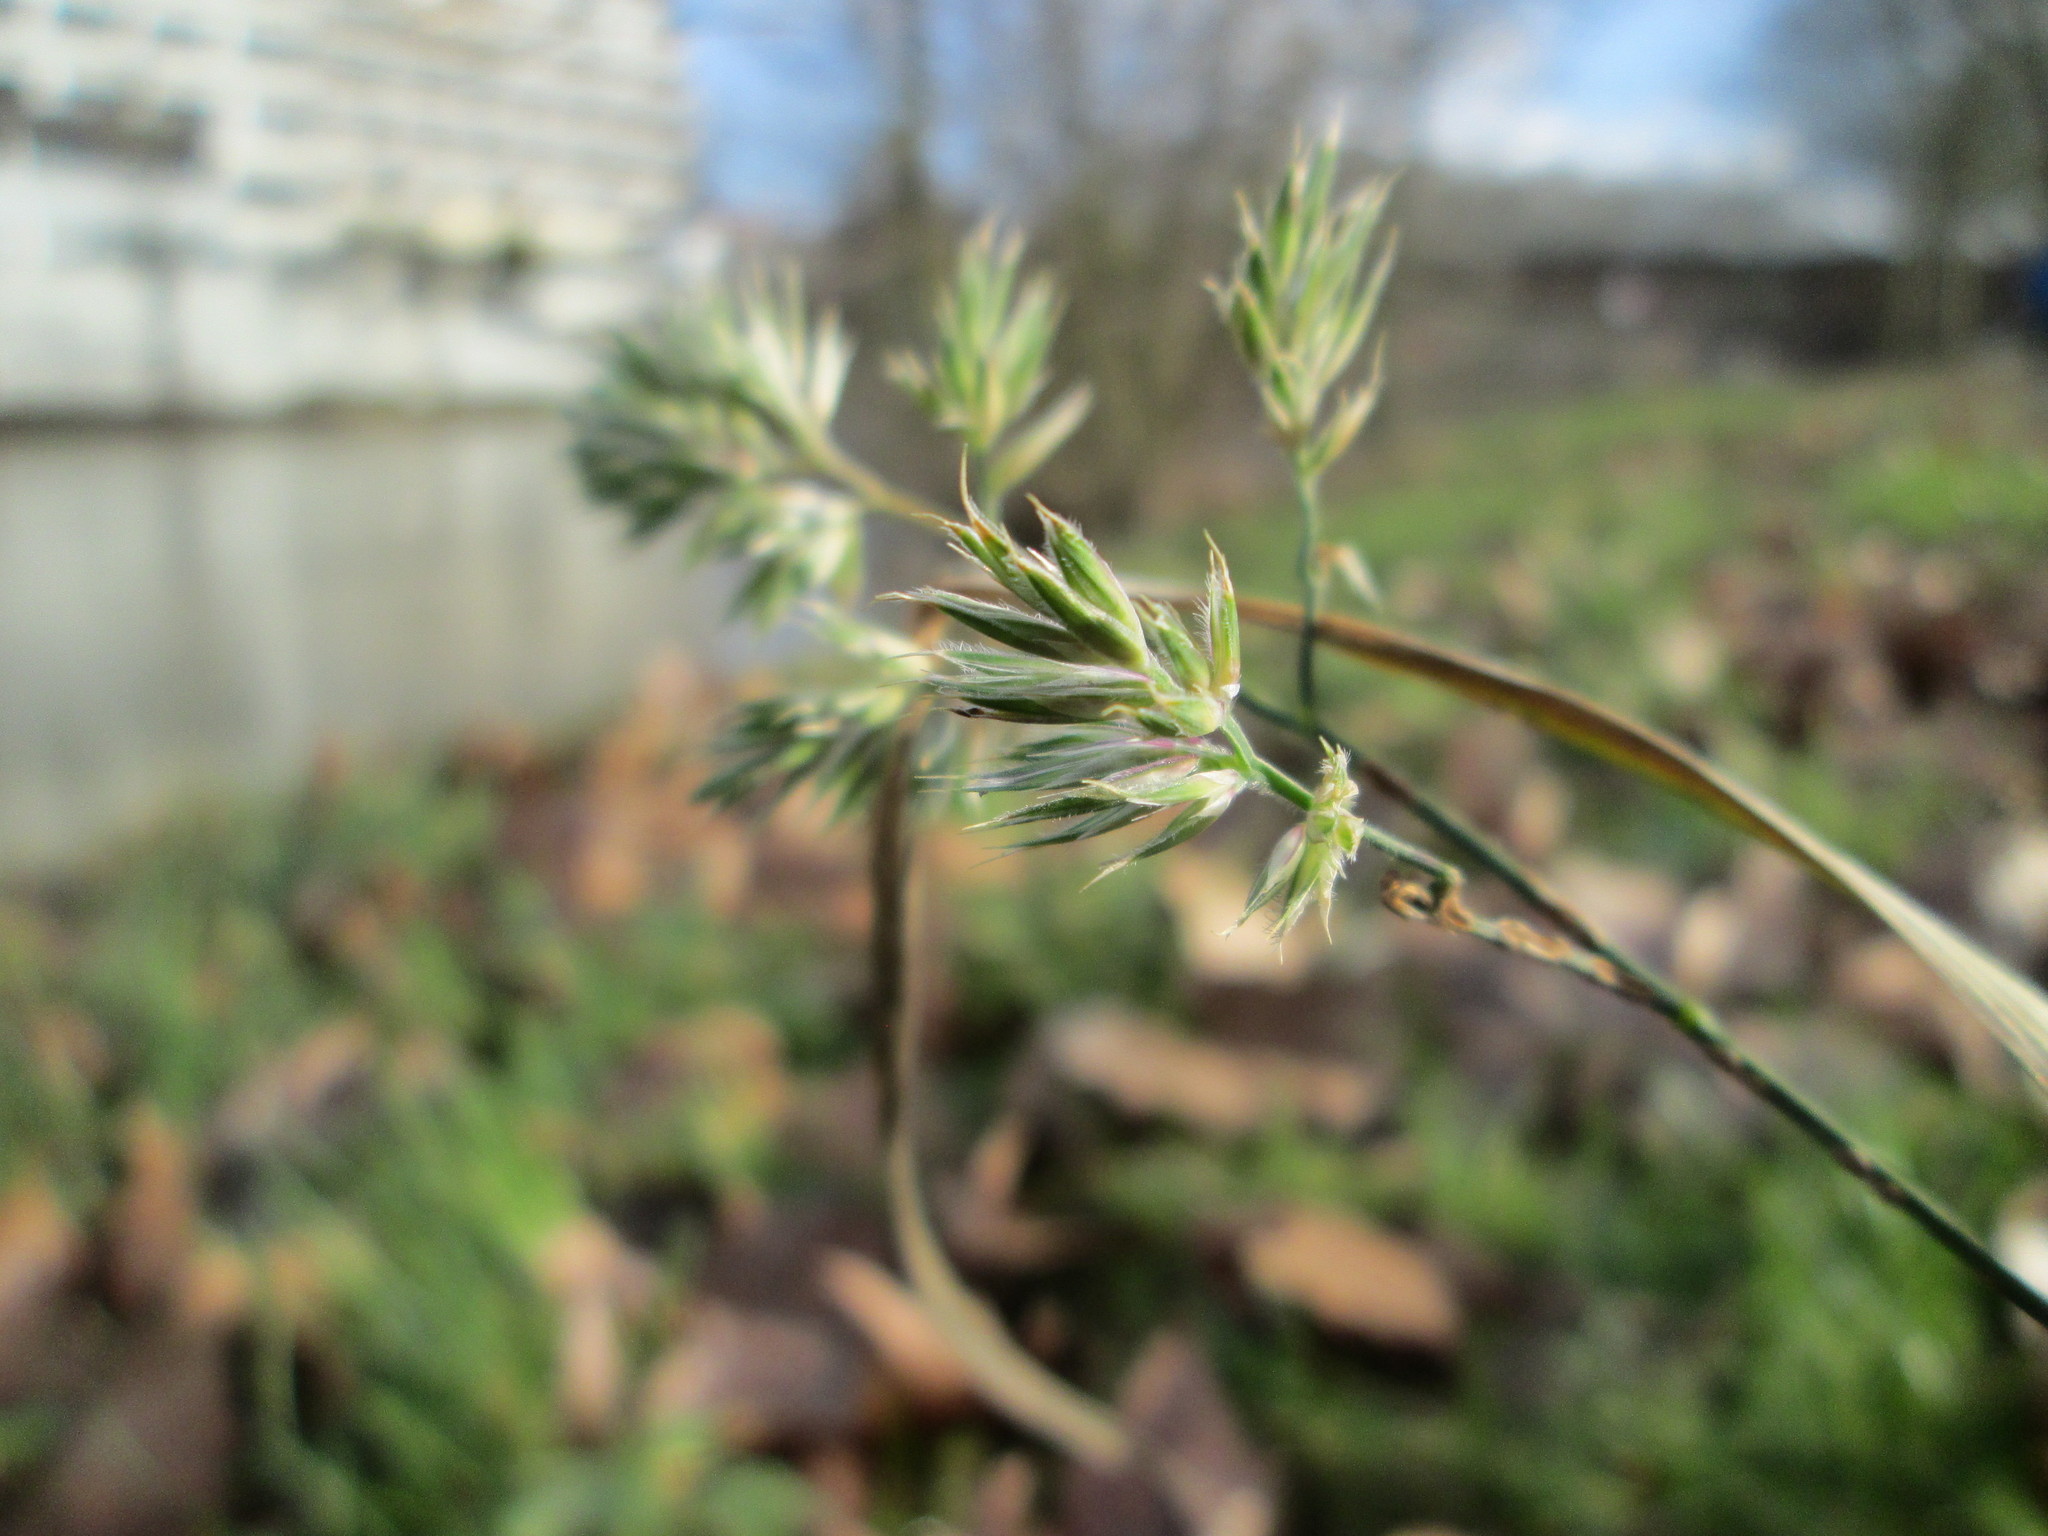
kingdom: Plantae
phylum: Tracheophyta
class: Liliopsida
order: Poales
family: Poaceae
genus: Dactylis
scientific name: Dactylis glomerata
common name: Orchardgrass
